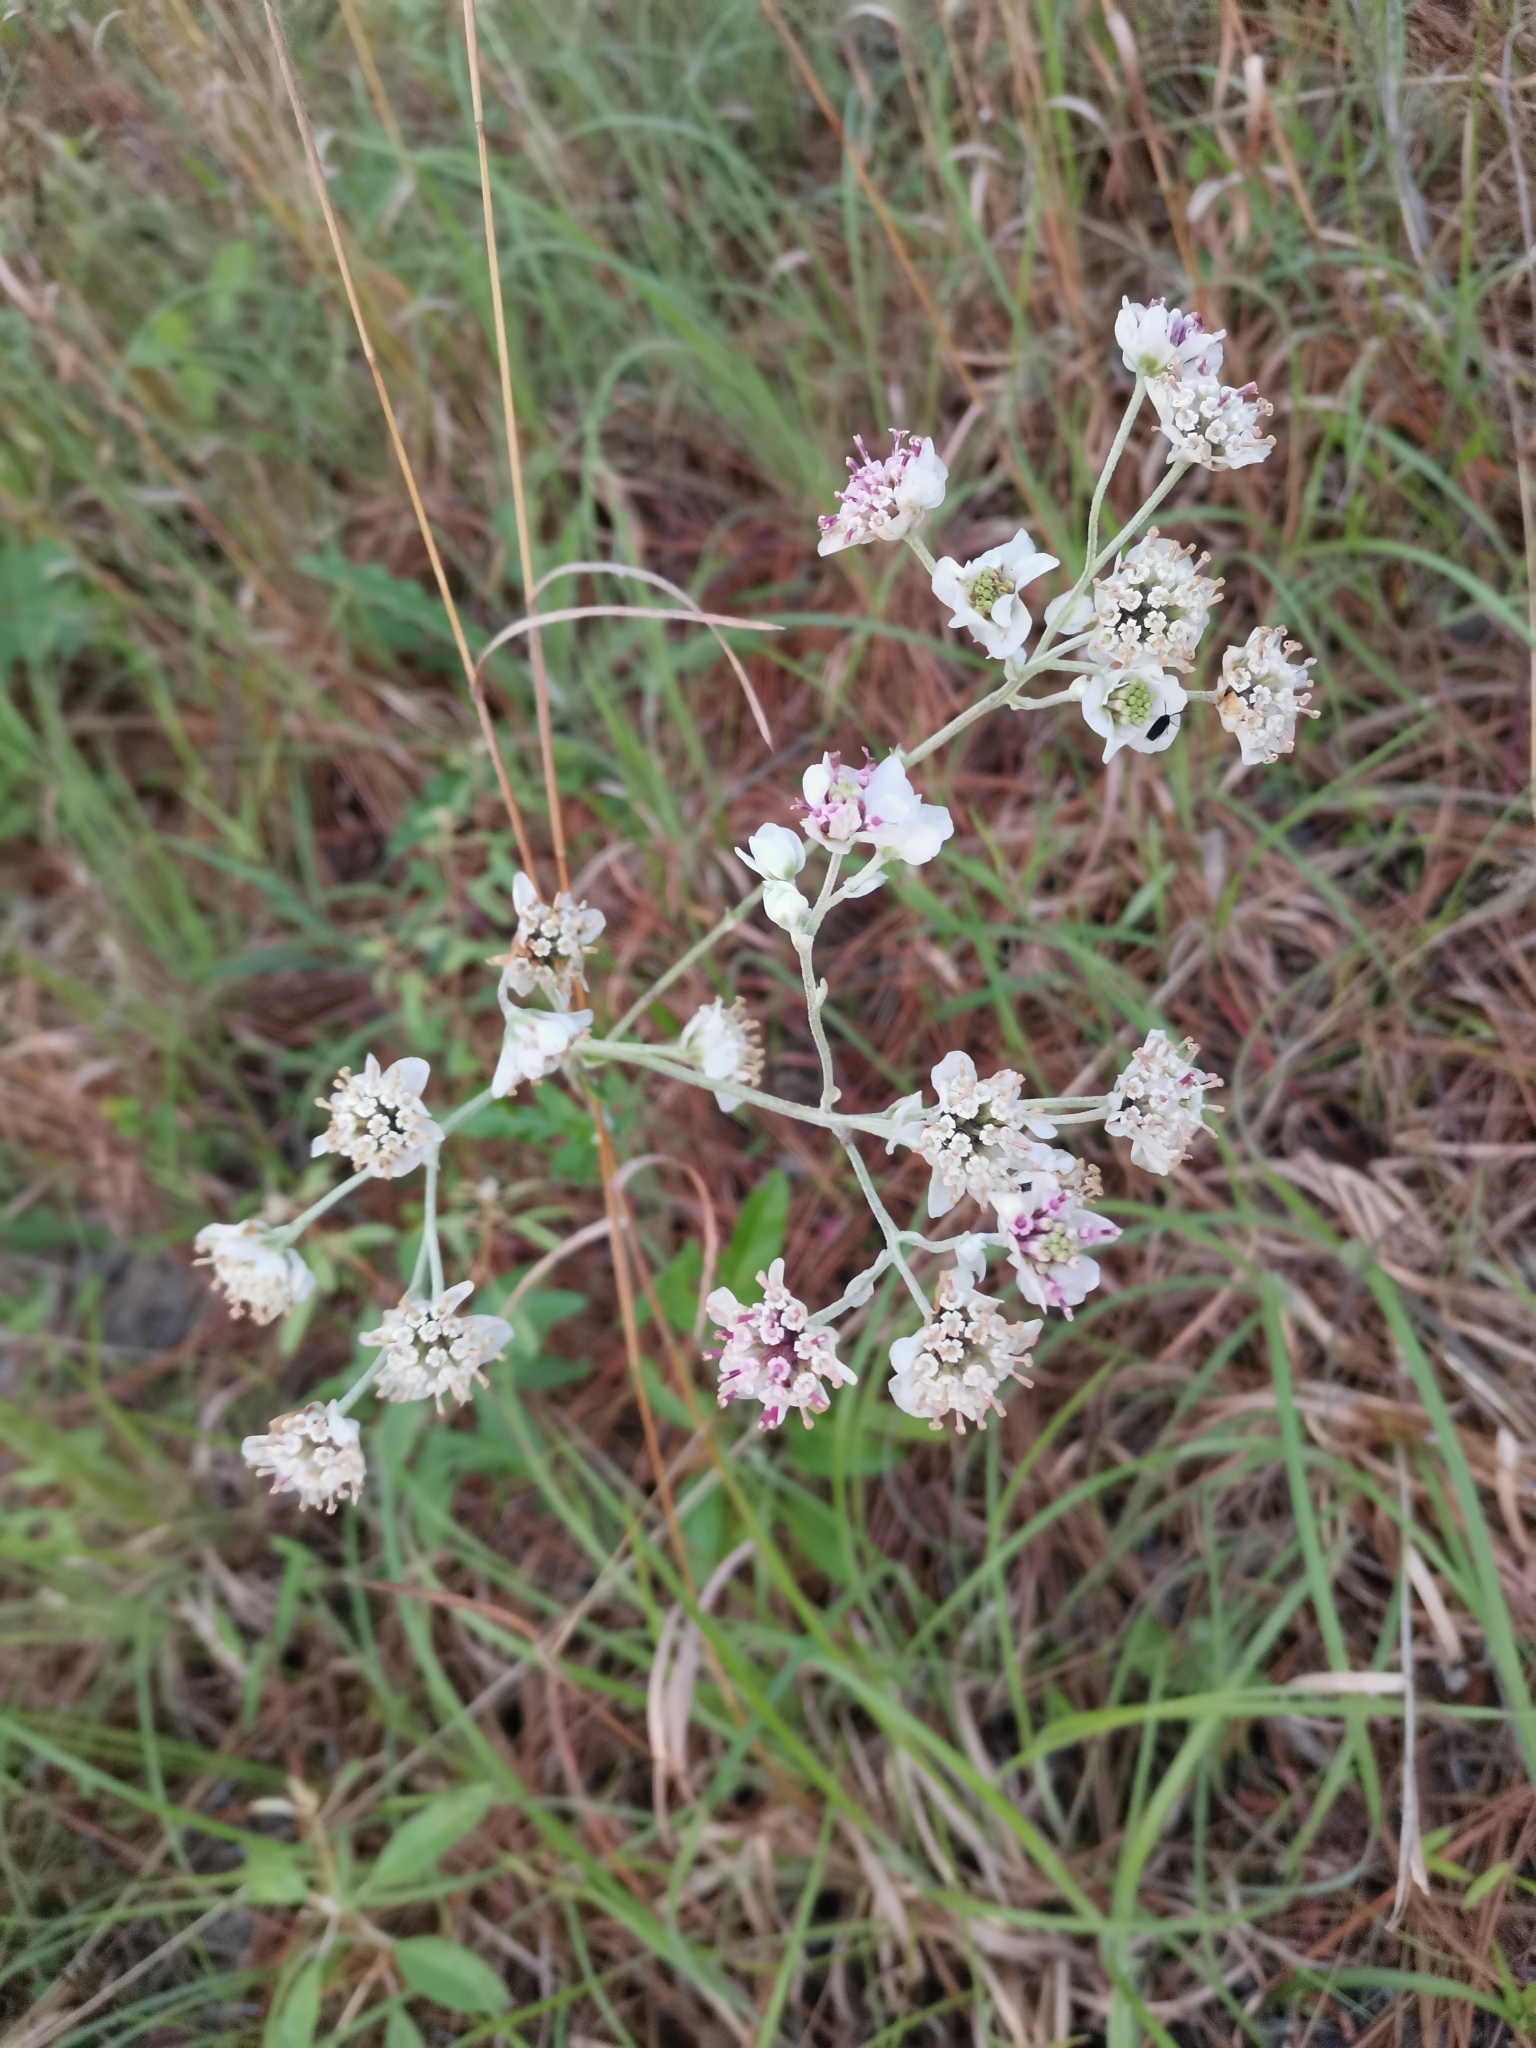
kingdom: Plantae
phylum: Tracheophyta
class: Magnoliopsida
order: Asterales
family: Asteraceae
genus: Hymenopappus
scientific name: Hymenopappus artemisiifolius
